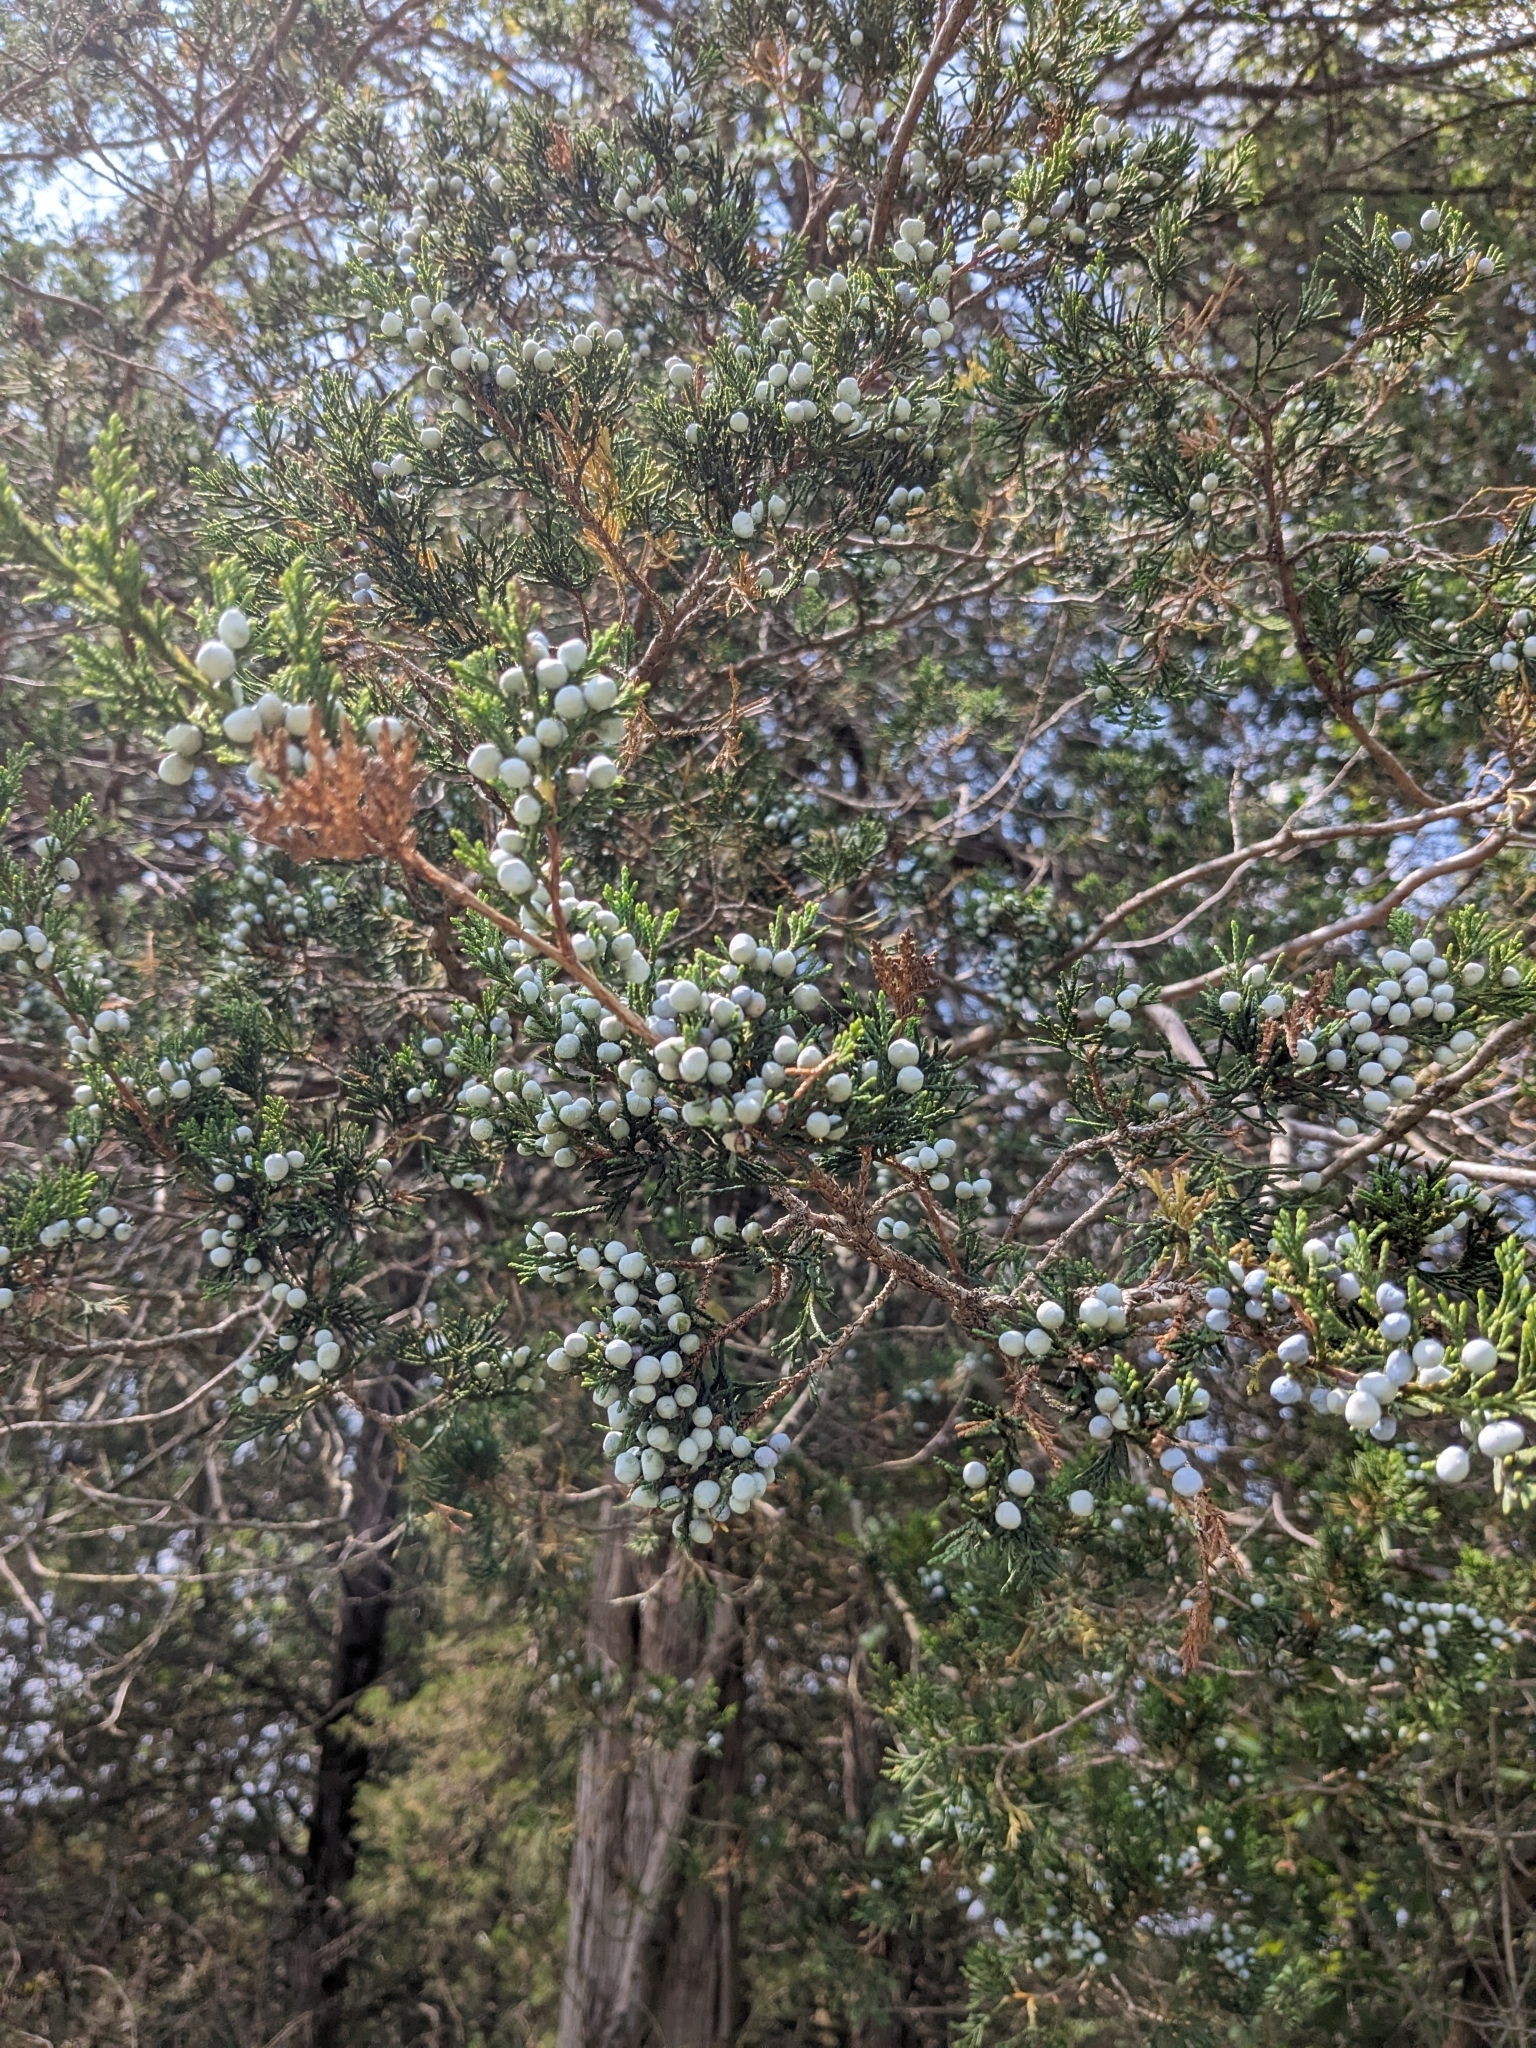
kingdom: Plantae
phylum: Tracheophyta
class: Pinopsida
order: Pinales
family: Cupressaceae
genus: Juniperus
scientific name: Juniperus virginiana
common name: Red juniper
